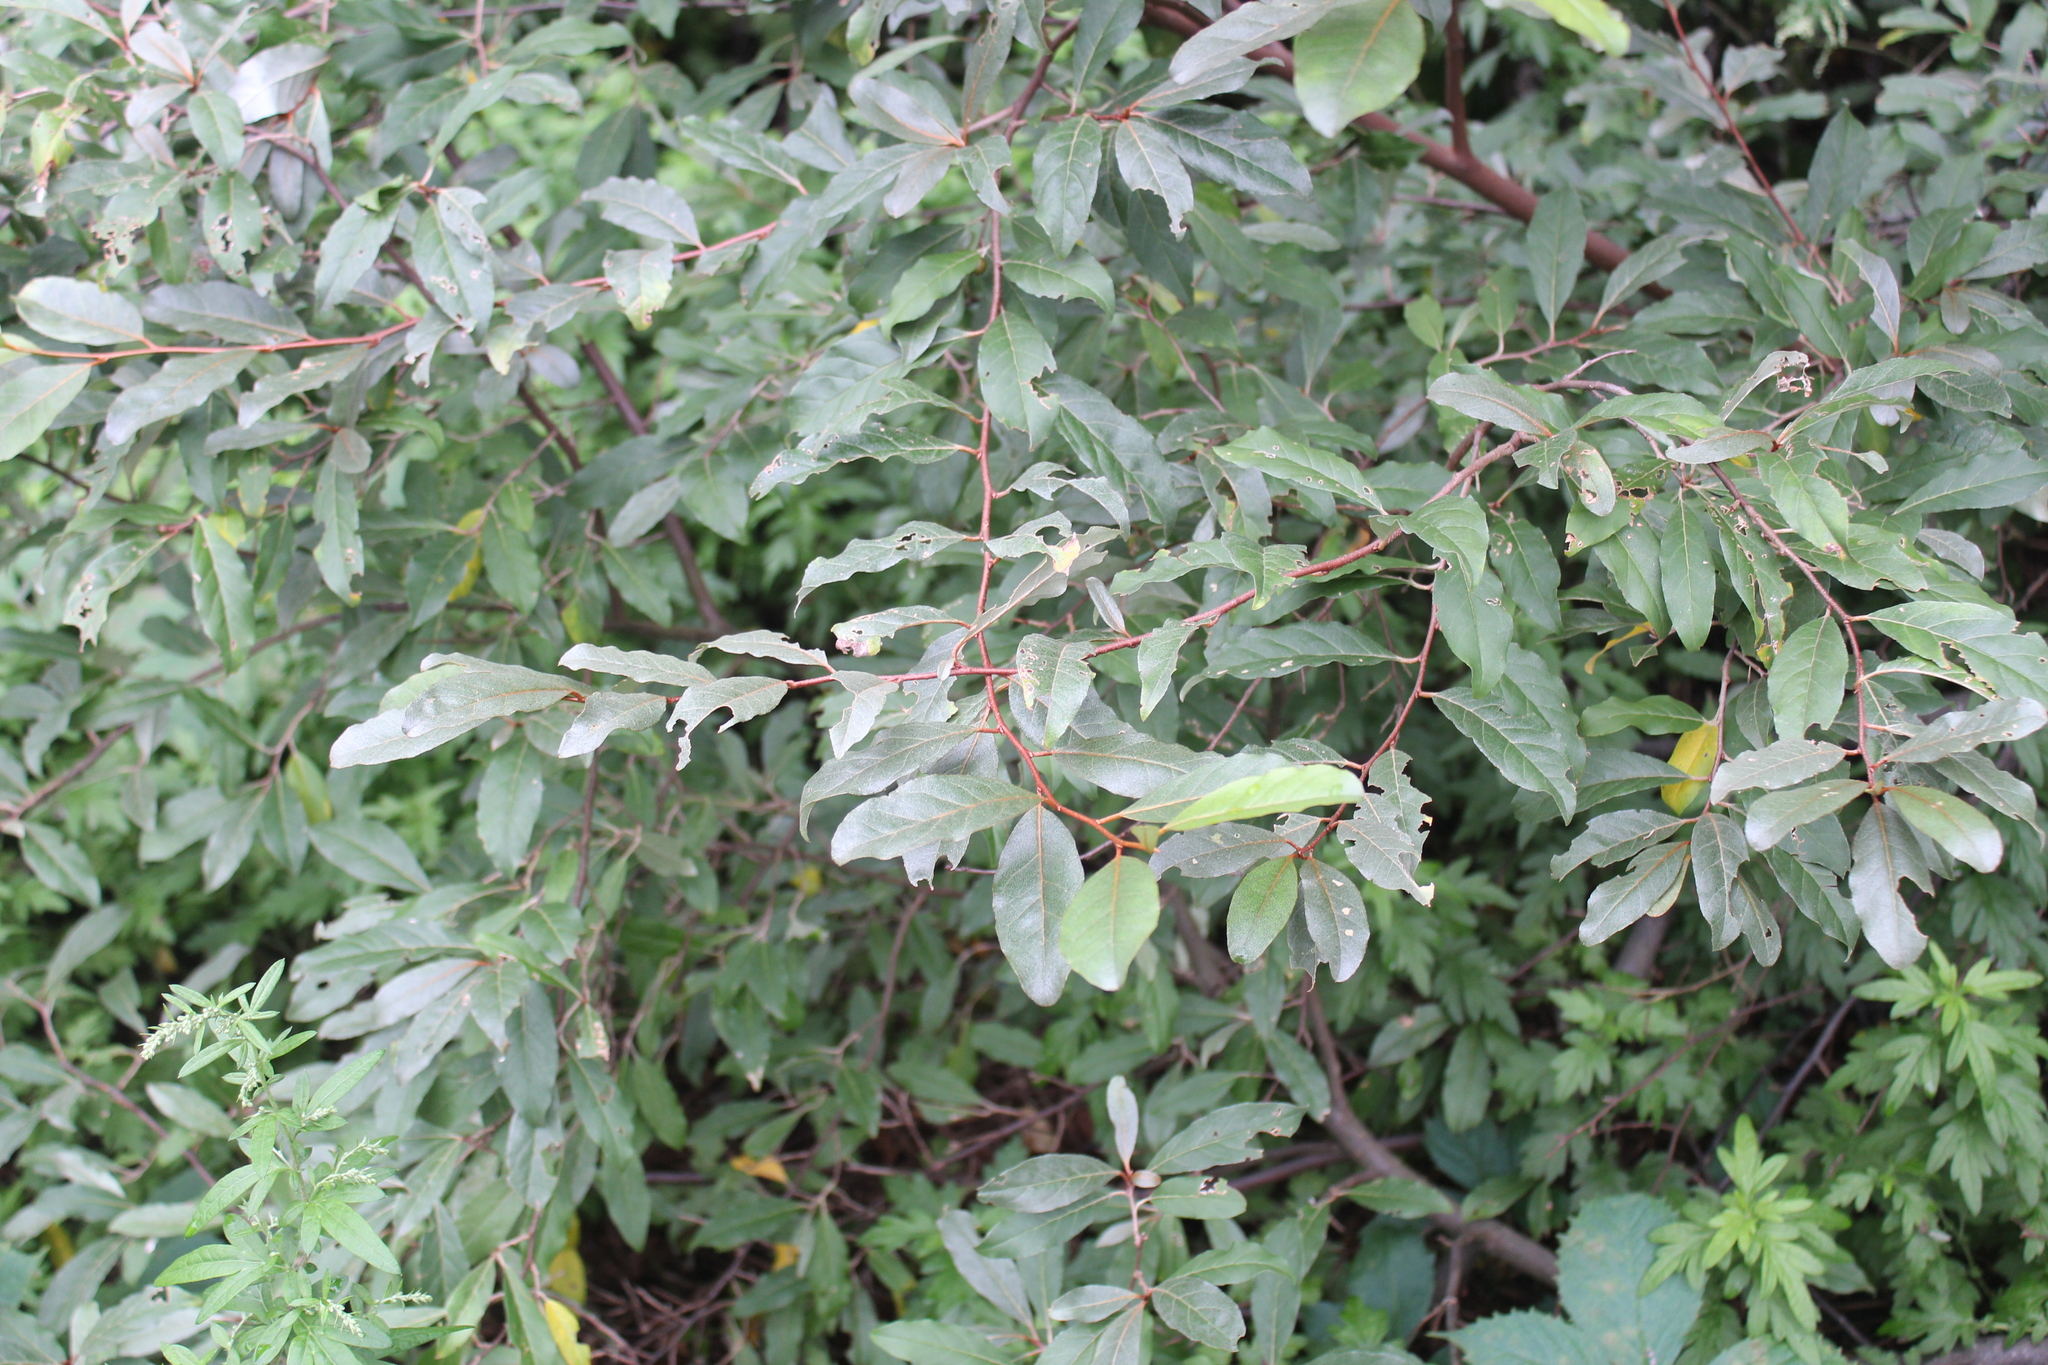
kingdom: Plantae
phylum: Tracheophyta
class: Magnoliopsida
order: Rosales
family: Elaeagnaceae
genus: Elaeagnus
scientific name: Elaeagnus umbellata
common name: Autumn olive
